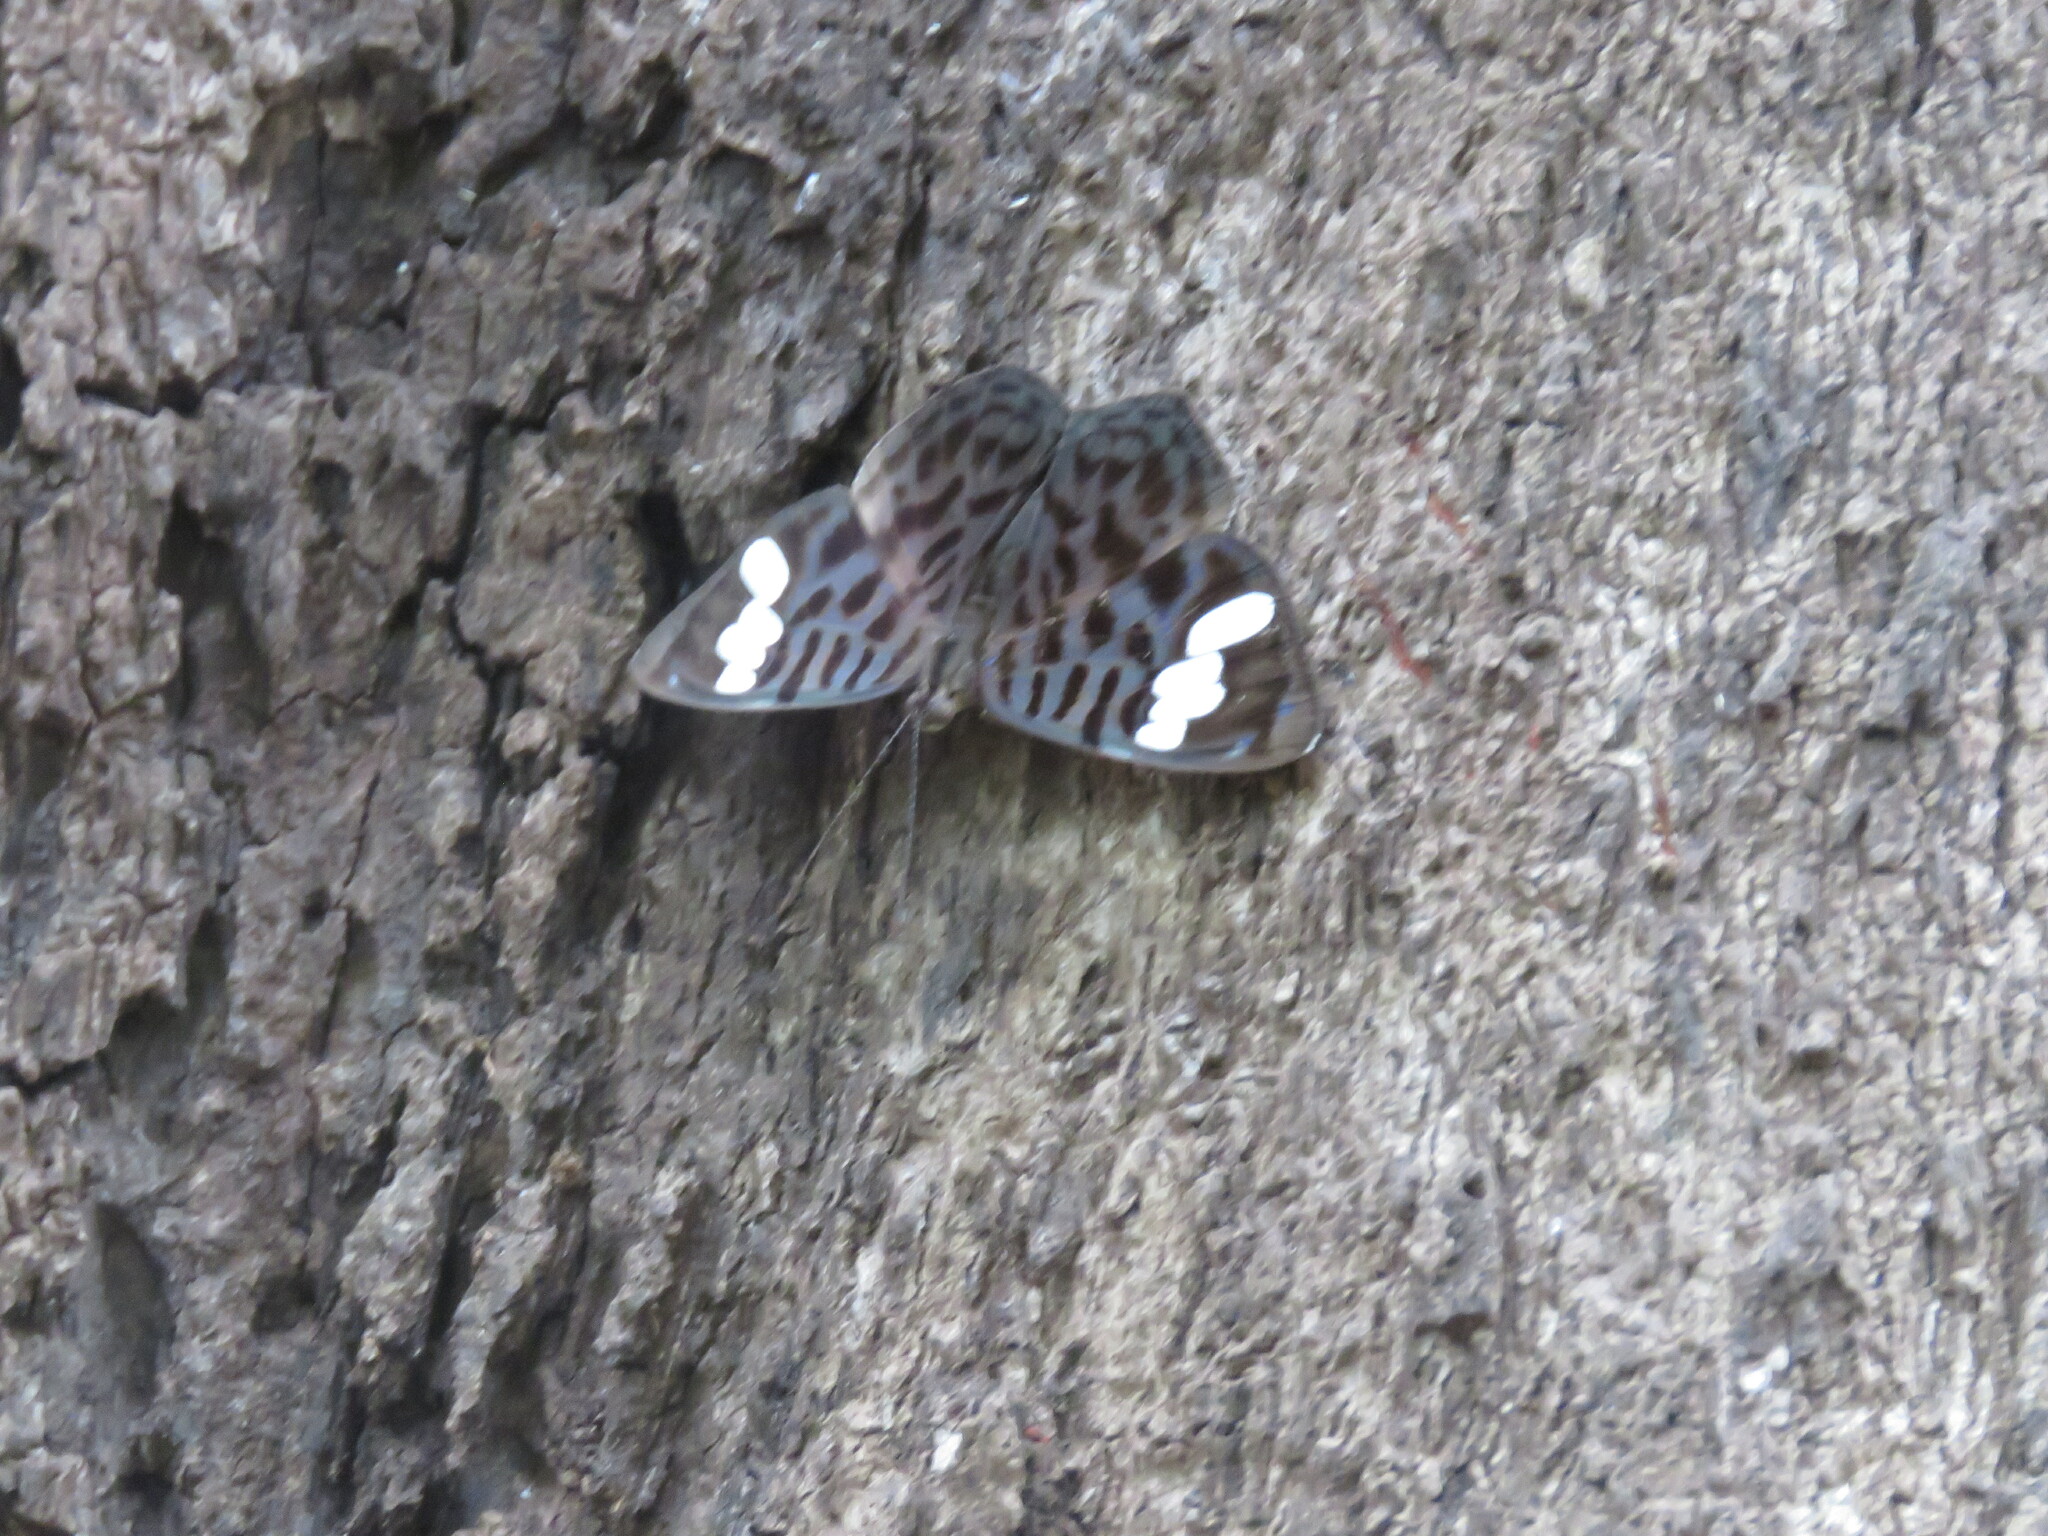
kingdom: Animalia
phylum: Arthropoda
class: Insecta
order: Lepidoptera
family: Nymphalidae
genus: Ectima
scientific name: Ectima iona
